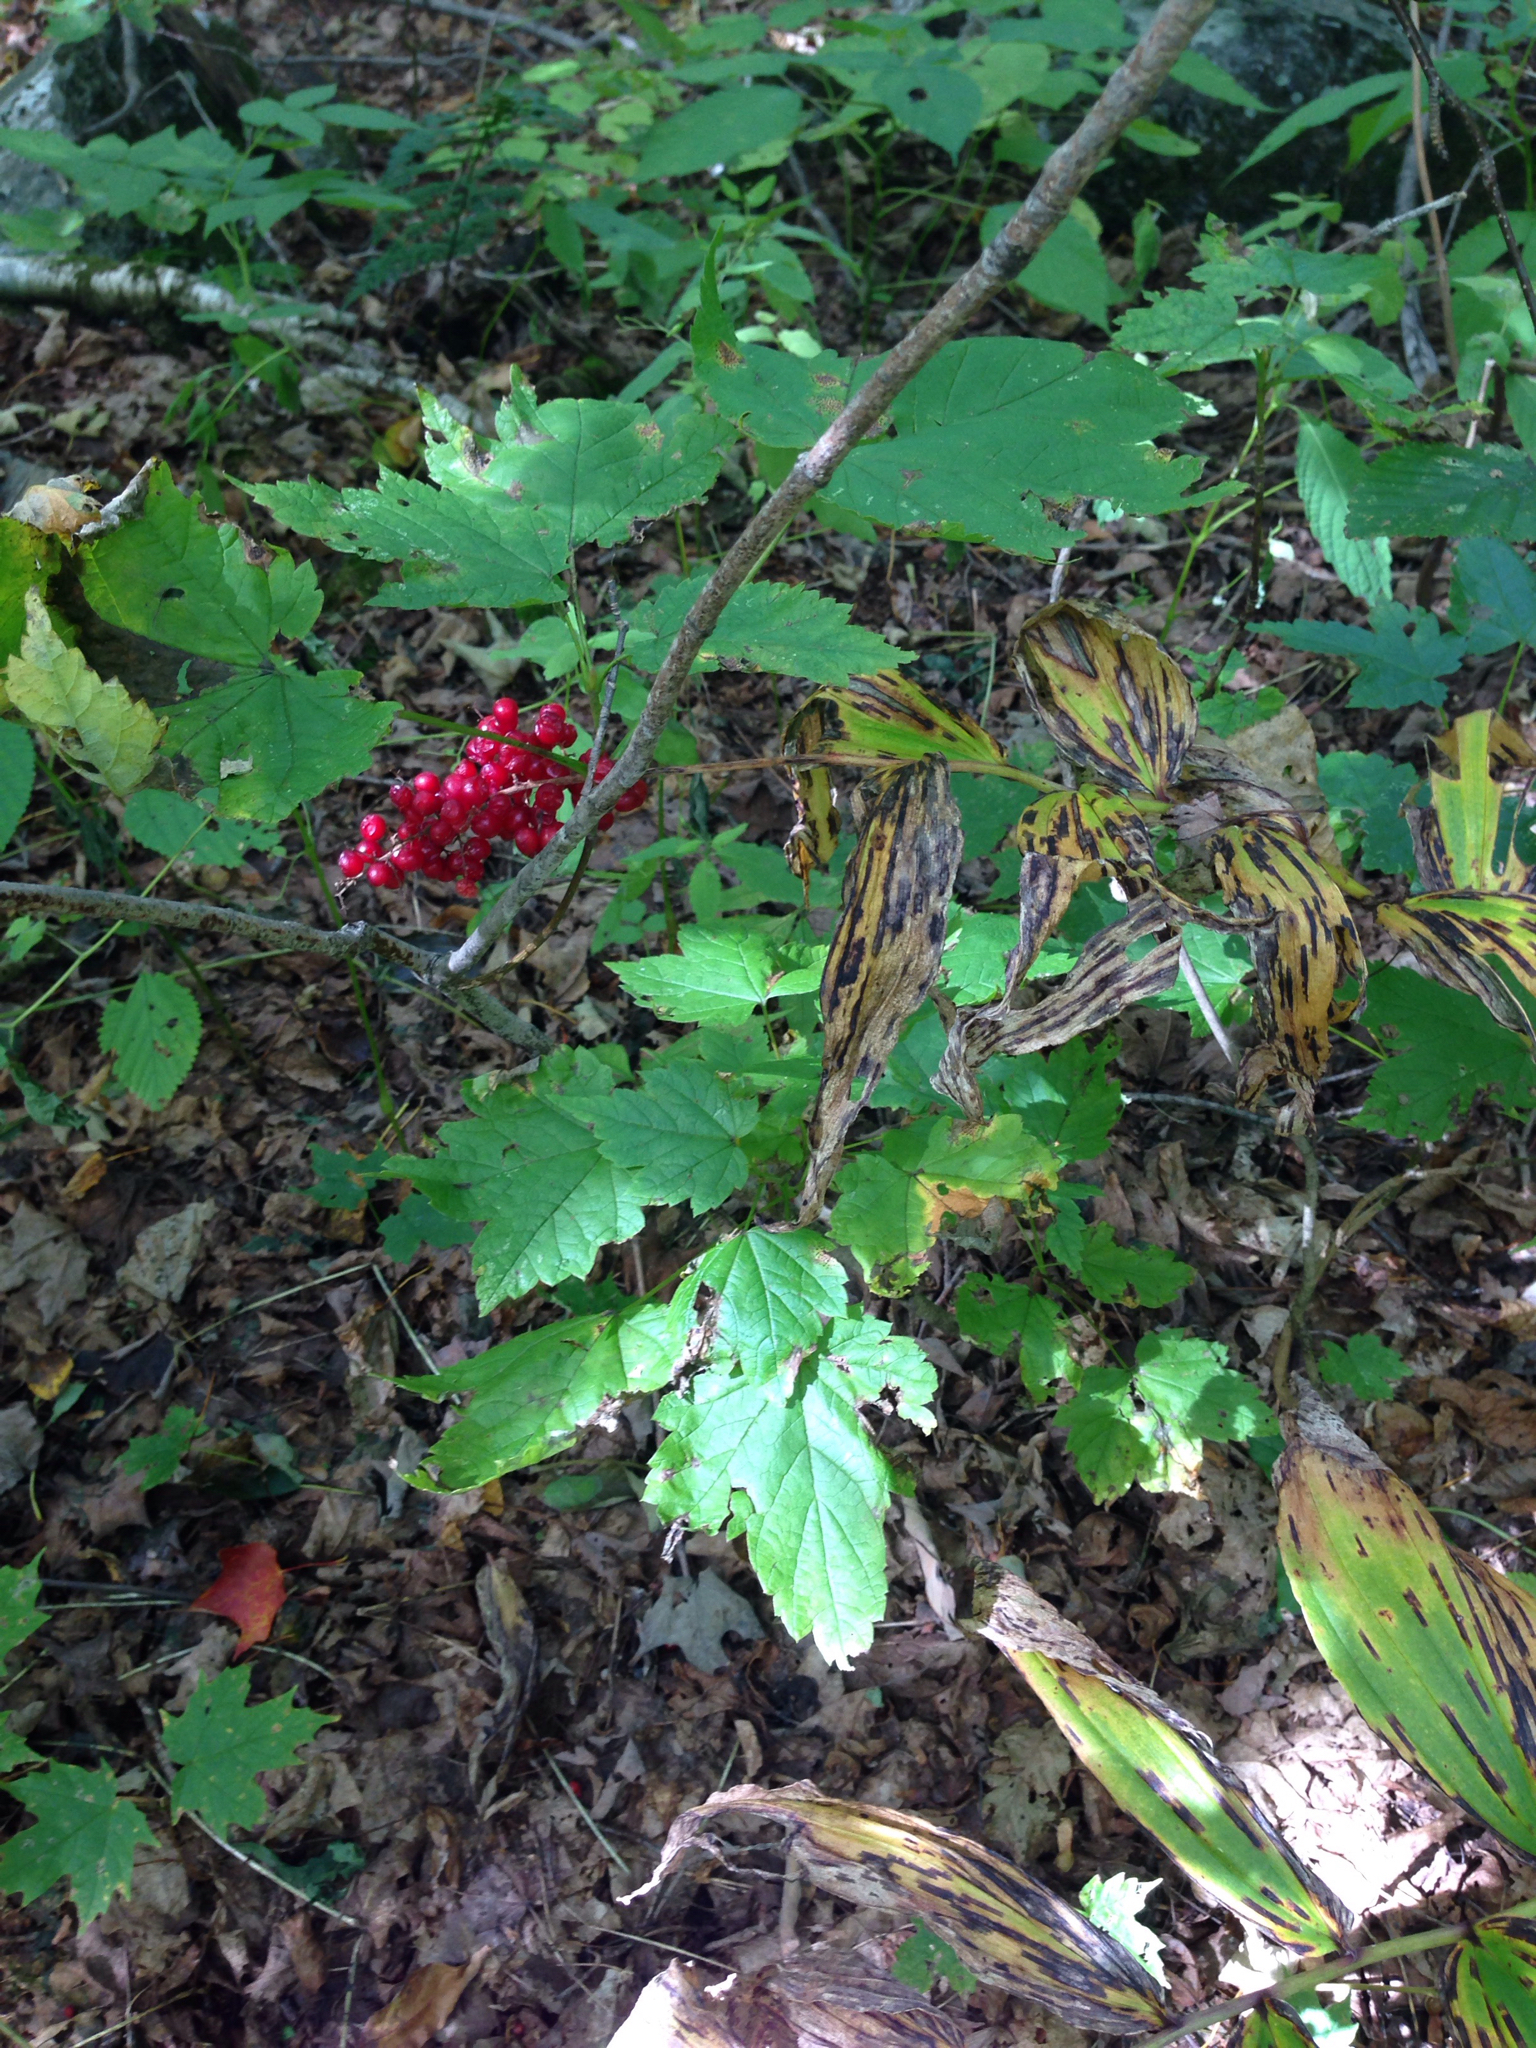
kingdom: Plantae
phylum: Tracheophyta
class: Liliopsida
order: Asparagales
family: Asparagaceae
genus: Maianthemum
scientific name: Maianthemum racemosum
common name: False spikenard
